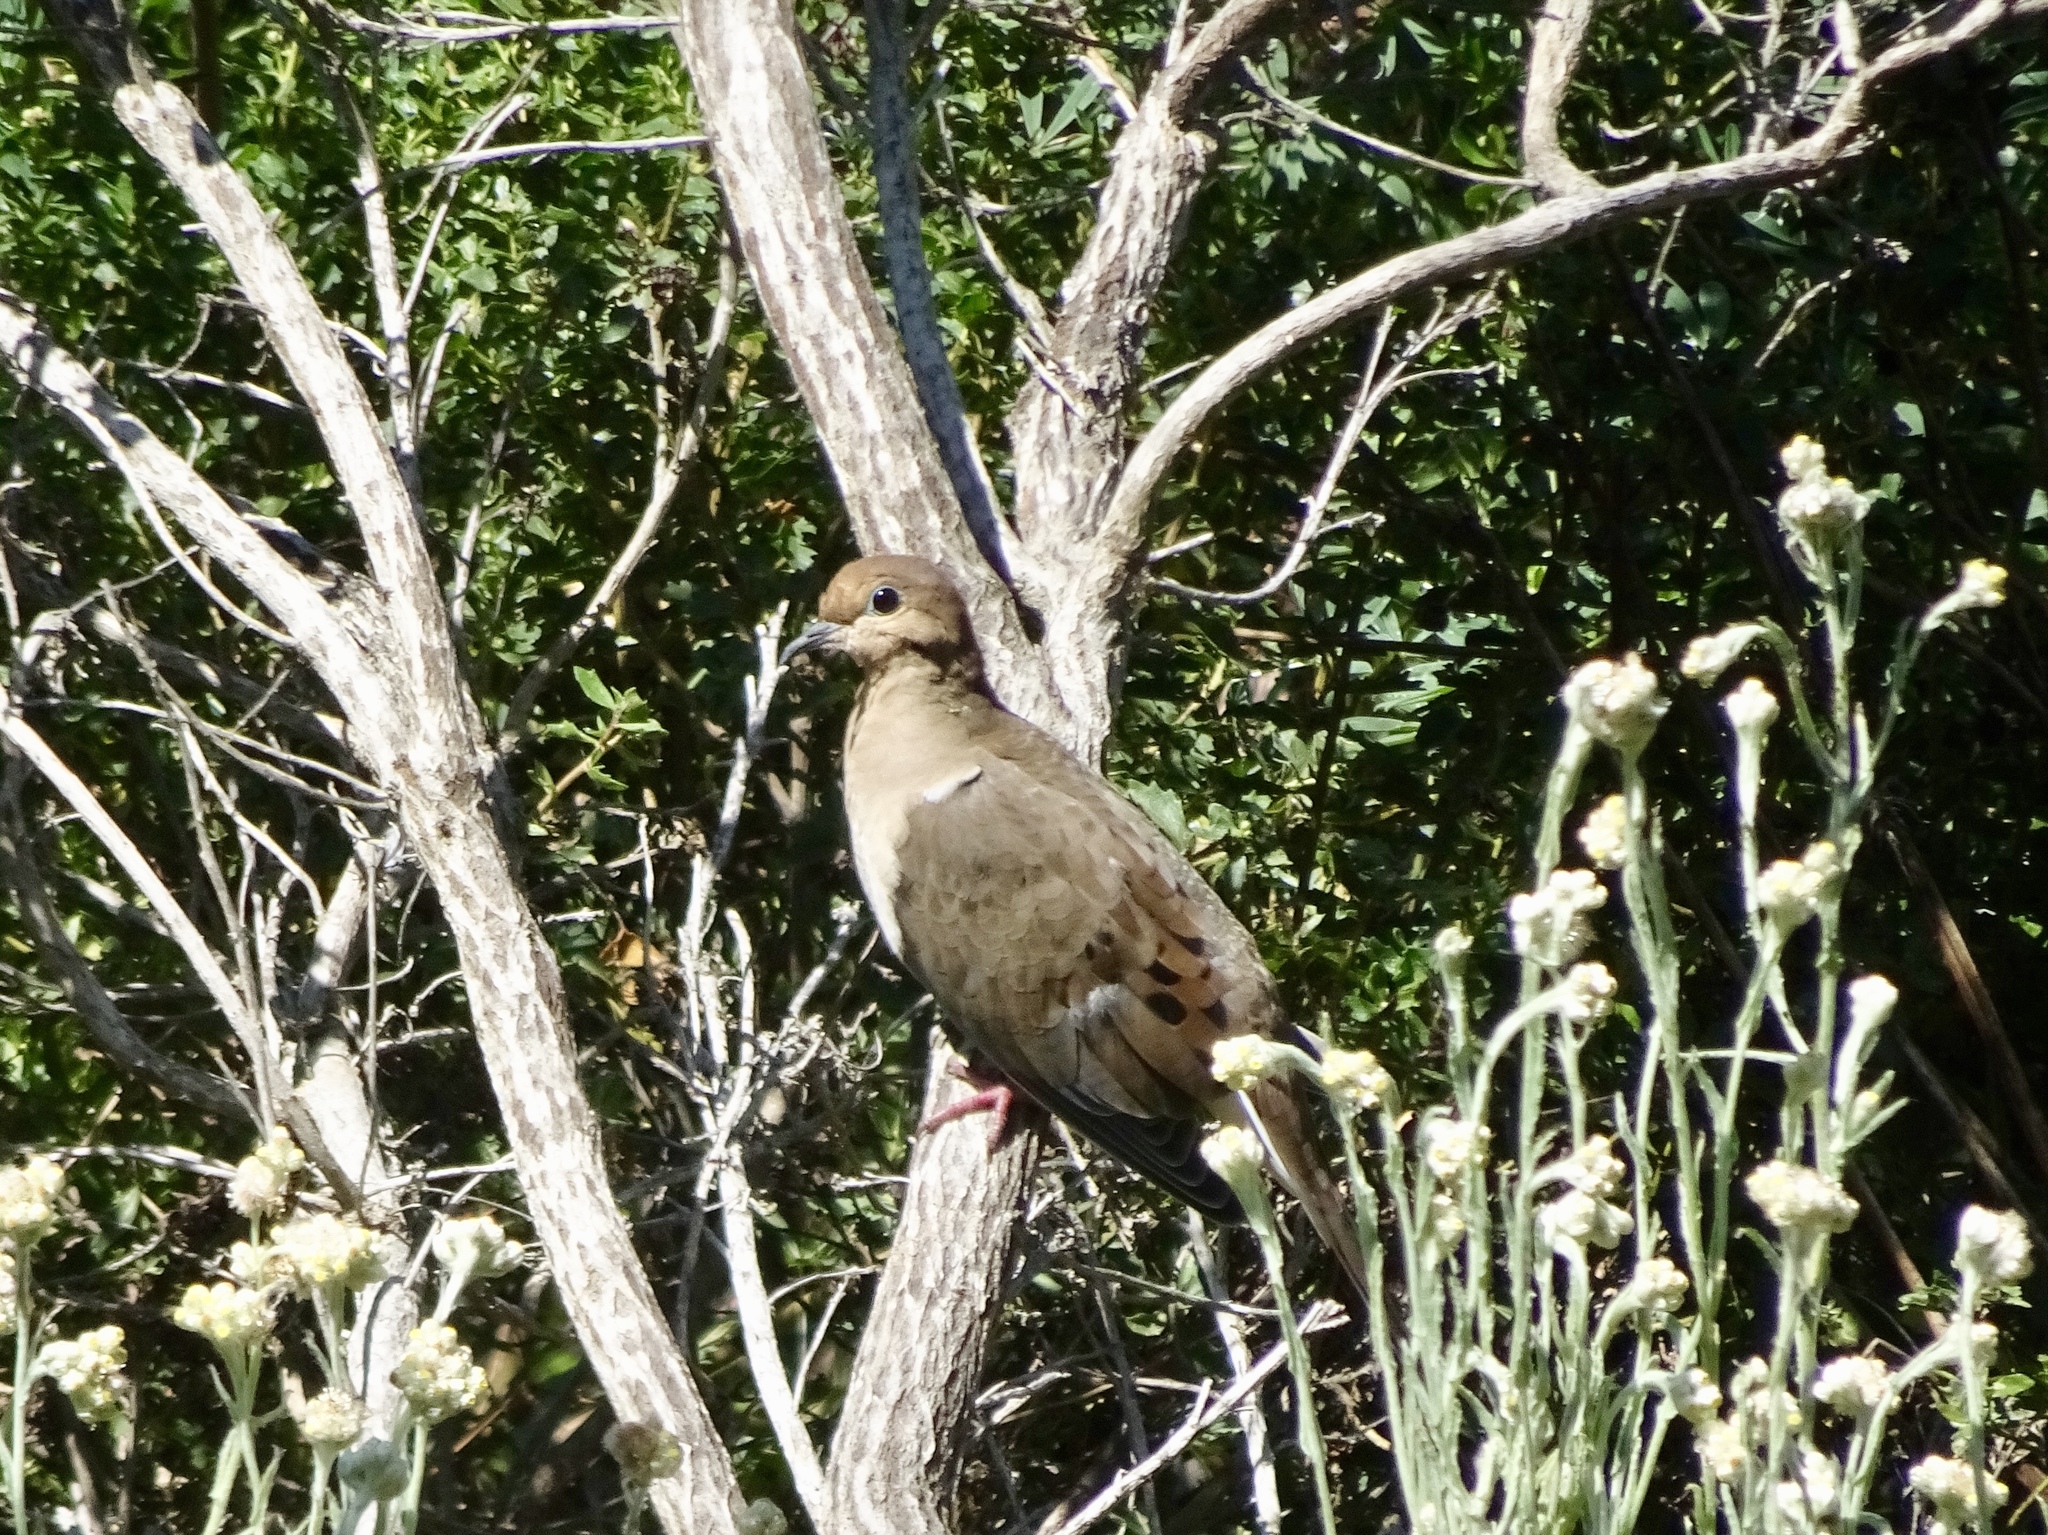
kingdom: Animalia
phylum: Chordata
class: Aves
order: Columbiformes
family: Columbidae
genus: Zenaida
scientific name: Zenaida macroura
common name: Mourning dove
